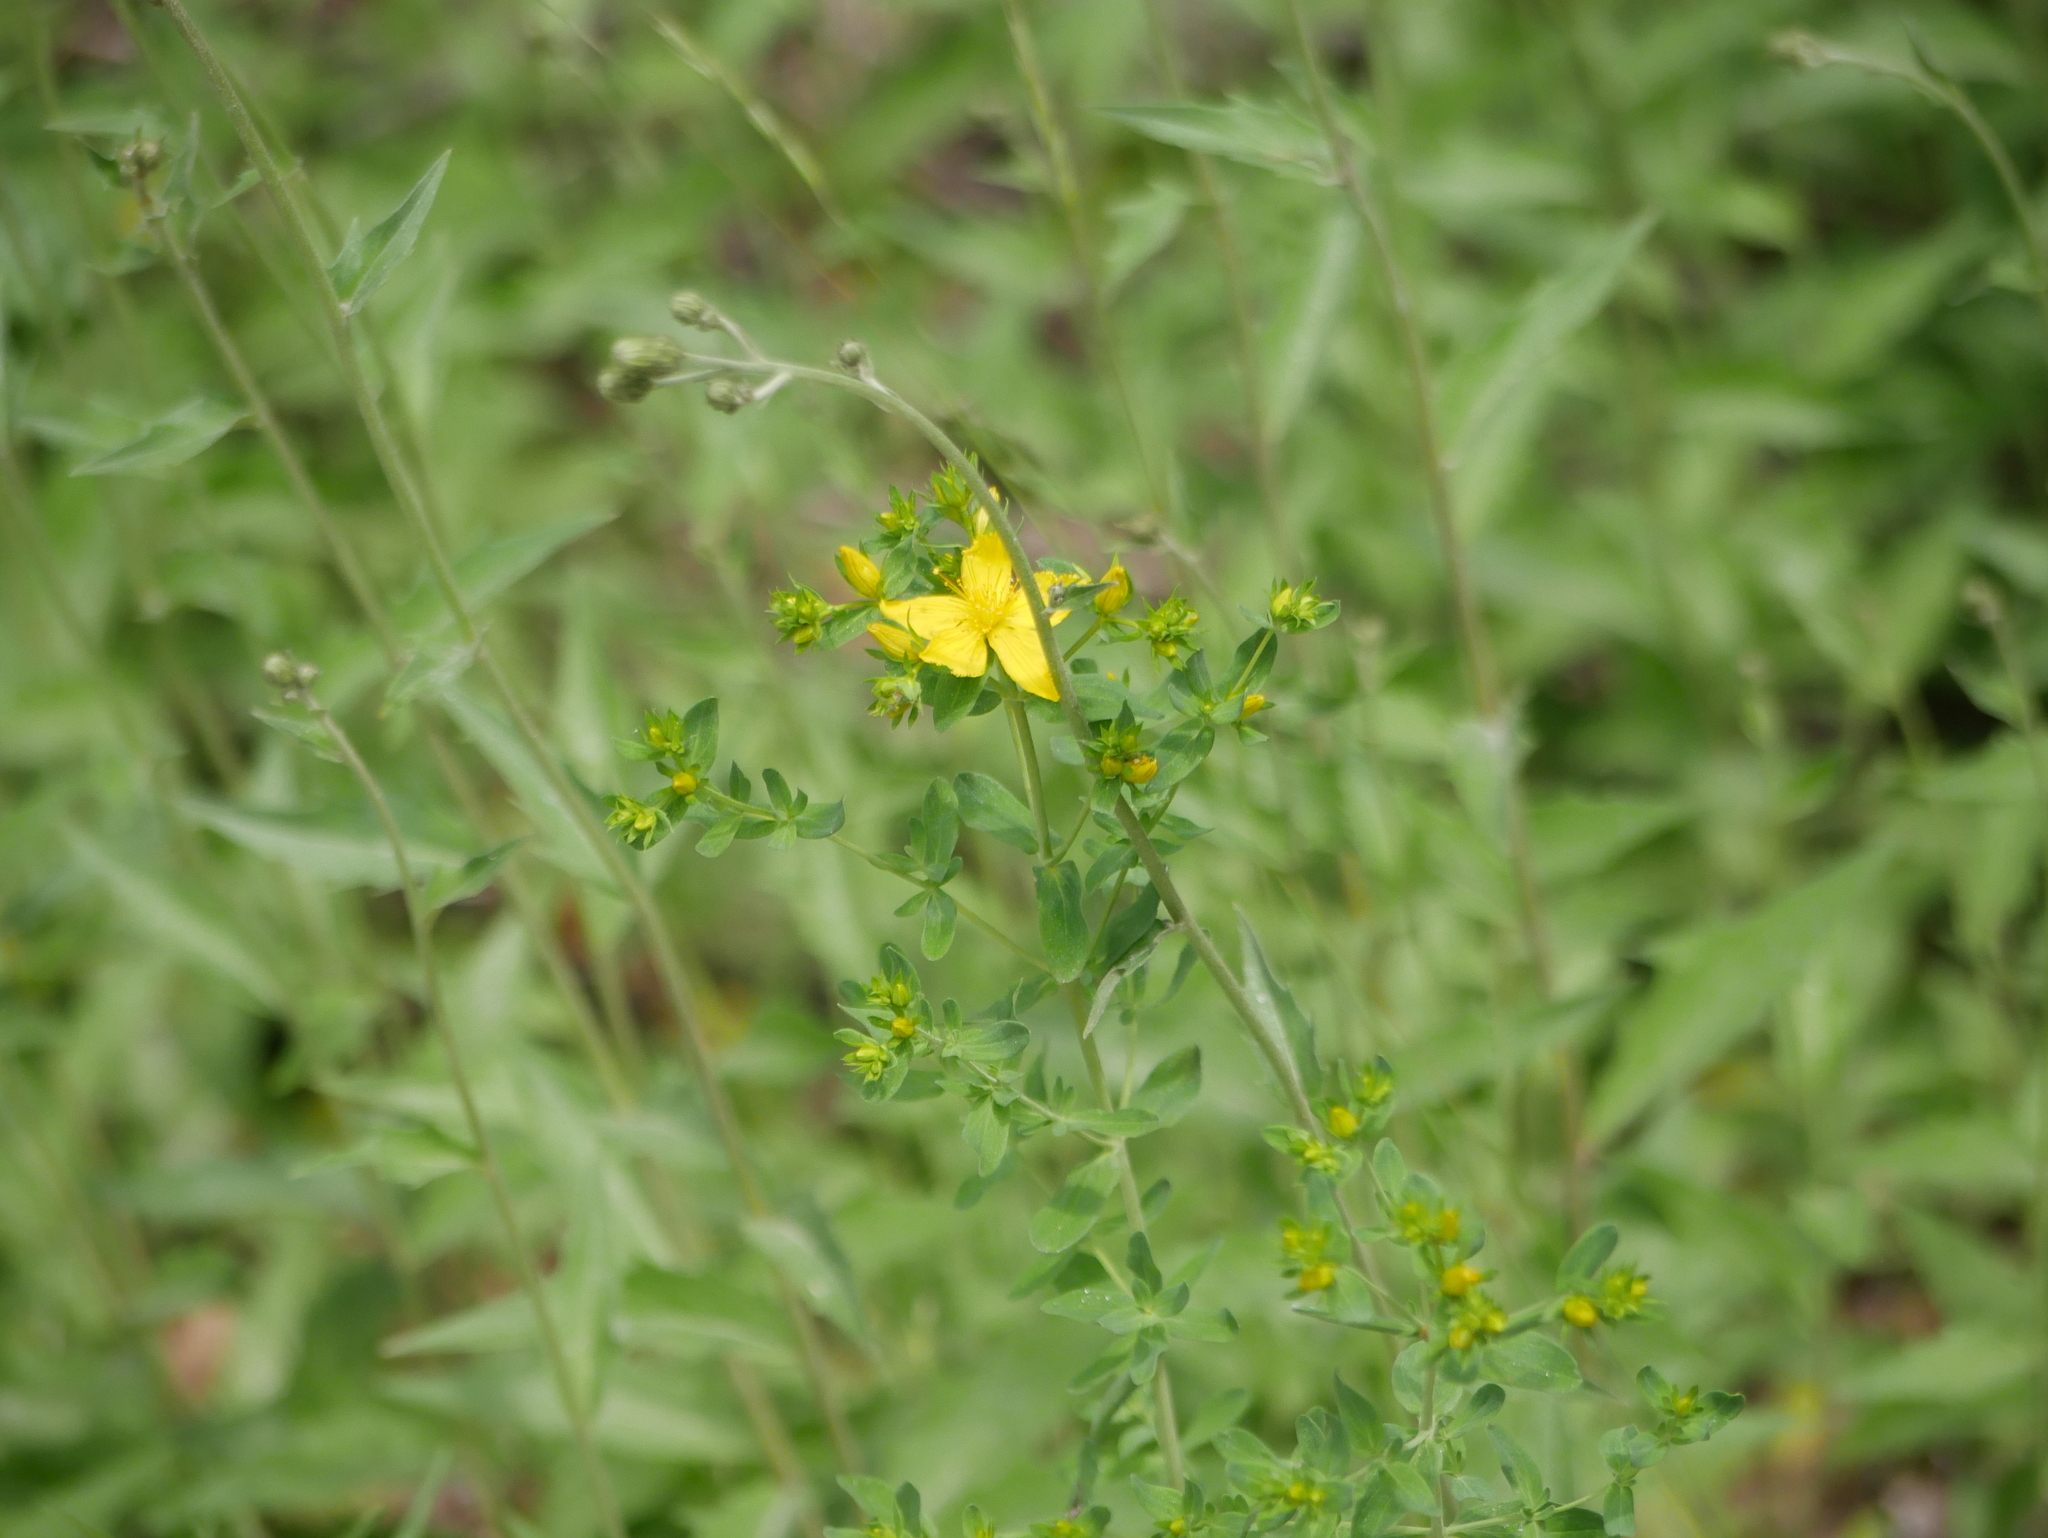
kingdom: Plantae
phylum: Tracheophyta
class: Magnoliopsida
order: Malpighiales
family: Hypericaceae
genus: Hypericum
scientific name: Hypericum perforatum
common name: Common st. johnswort
